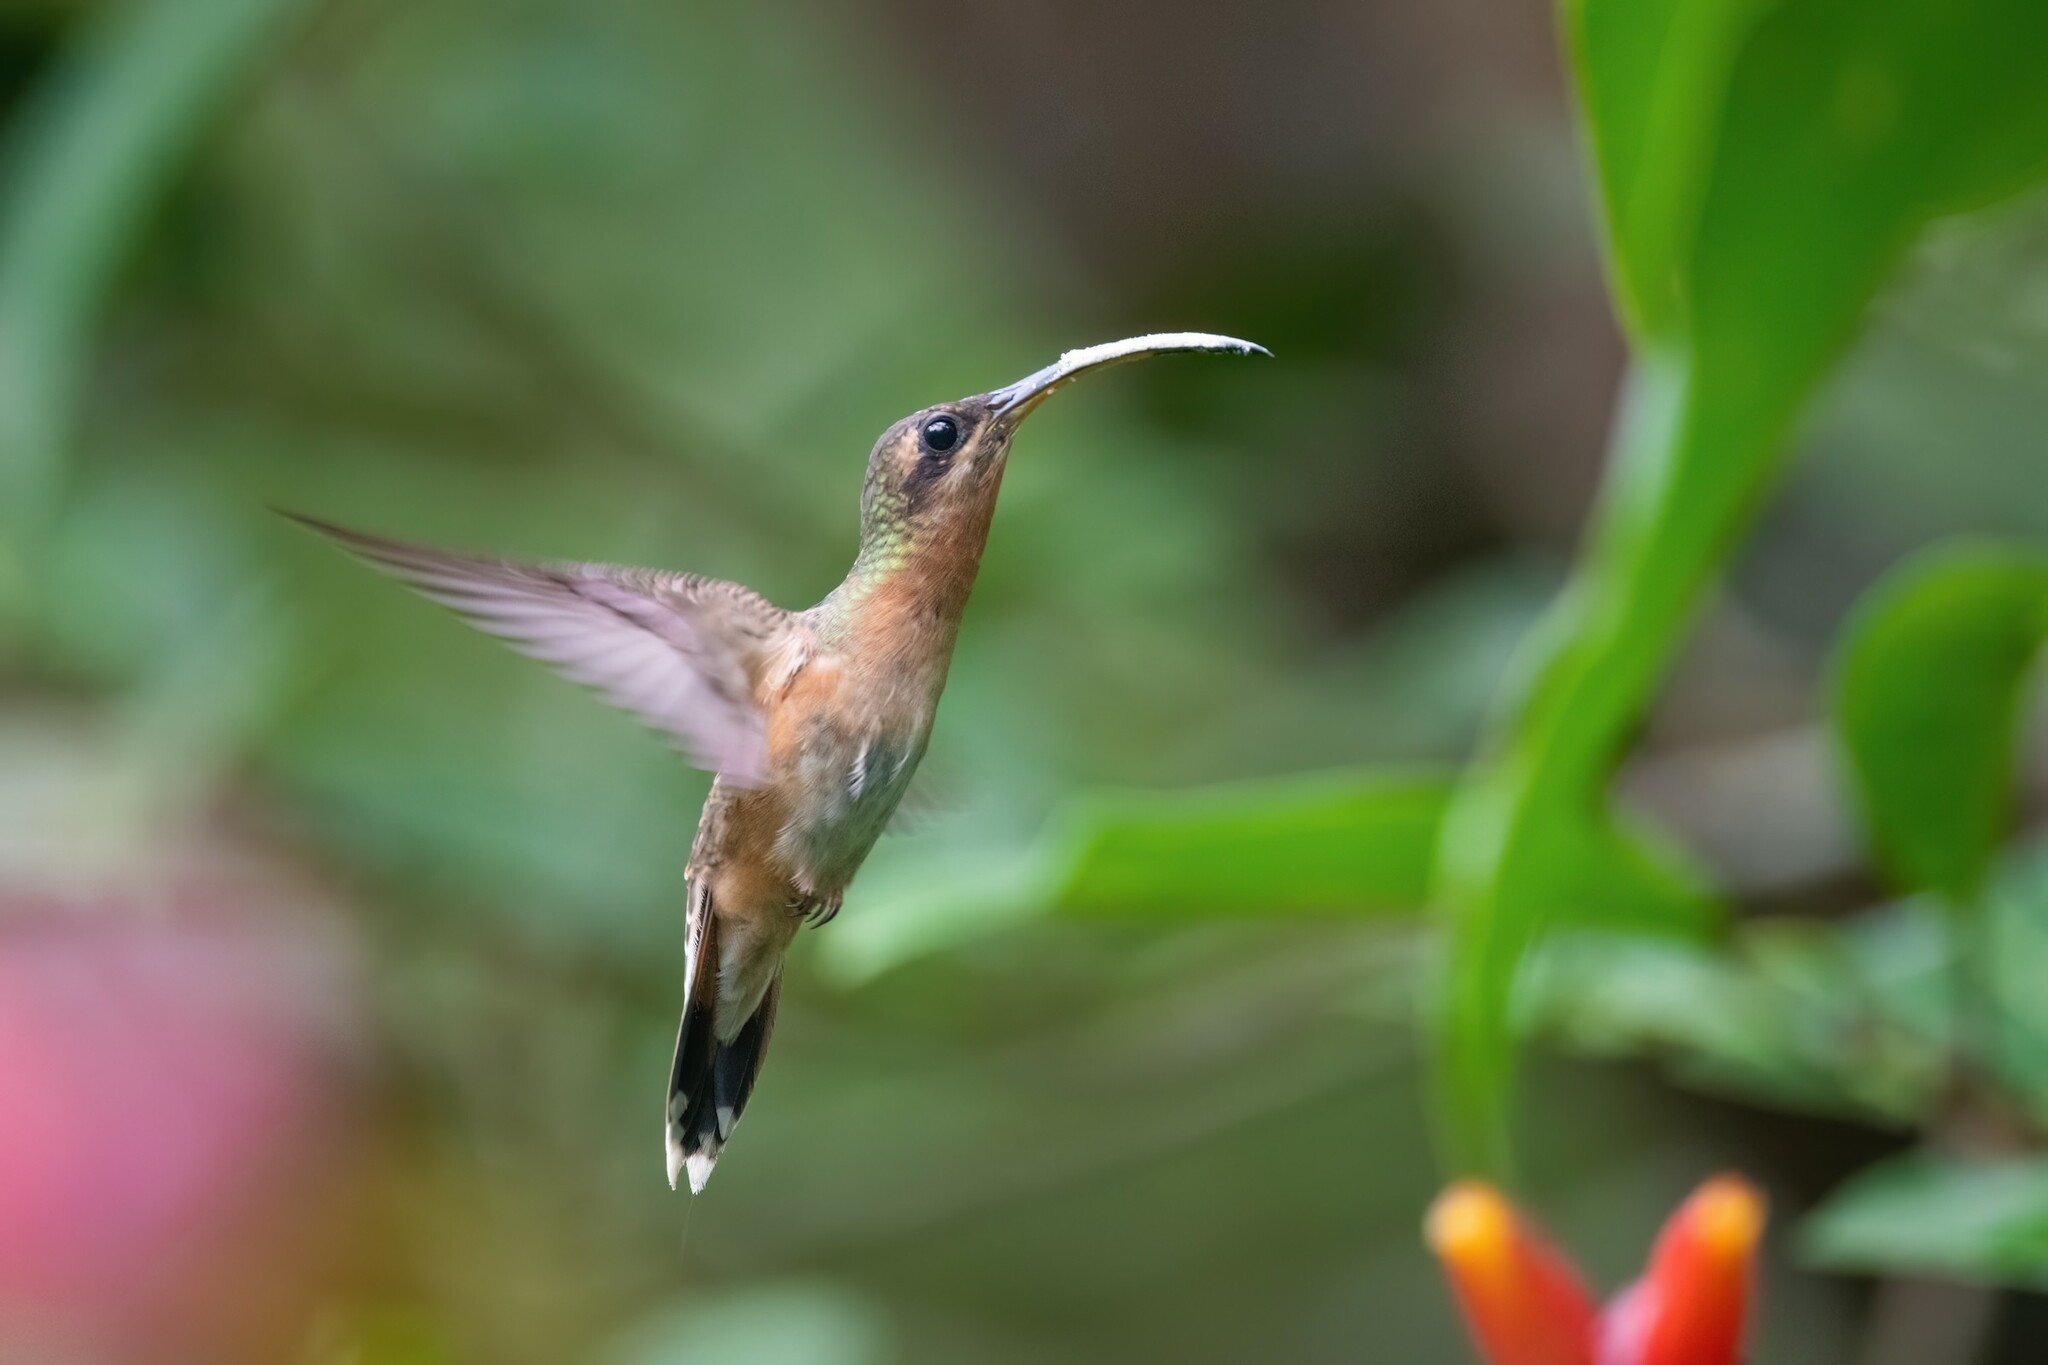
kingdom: Animalia
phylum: Chordata
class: Aves
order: Apodiformes
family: Trochilidae
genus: Glaucis
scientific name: Glaucis aeneus
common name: Bronzy hermit
